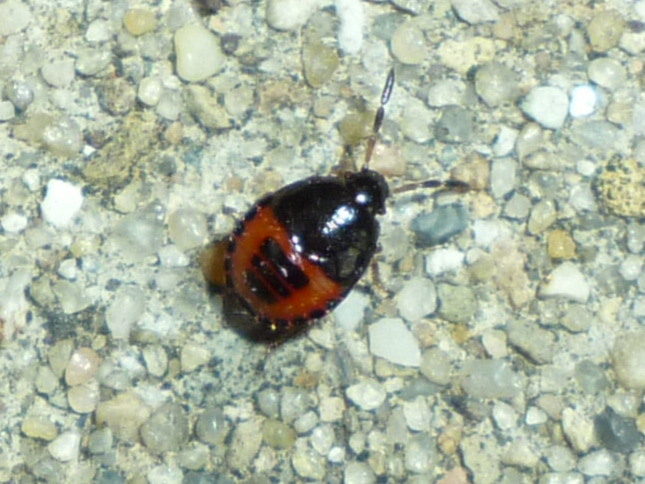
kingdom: Animalia
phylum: Arthropoda
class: Insecta
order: Hemiptera
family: Cydnidae
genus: Sehirus
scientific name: Sehirus cinctus
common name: White-margined burrower bug
